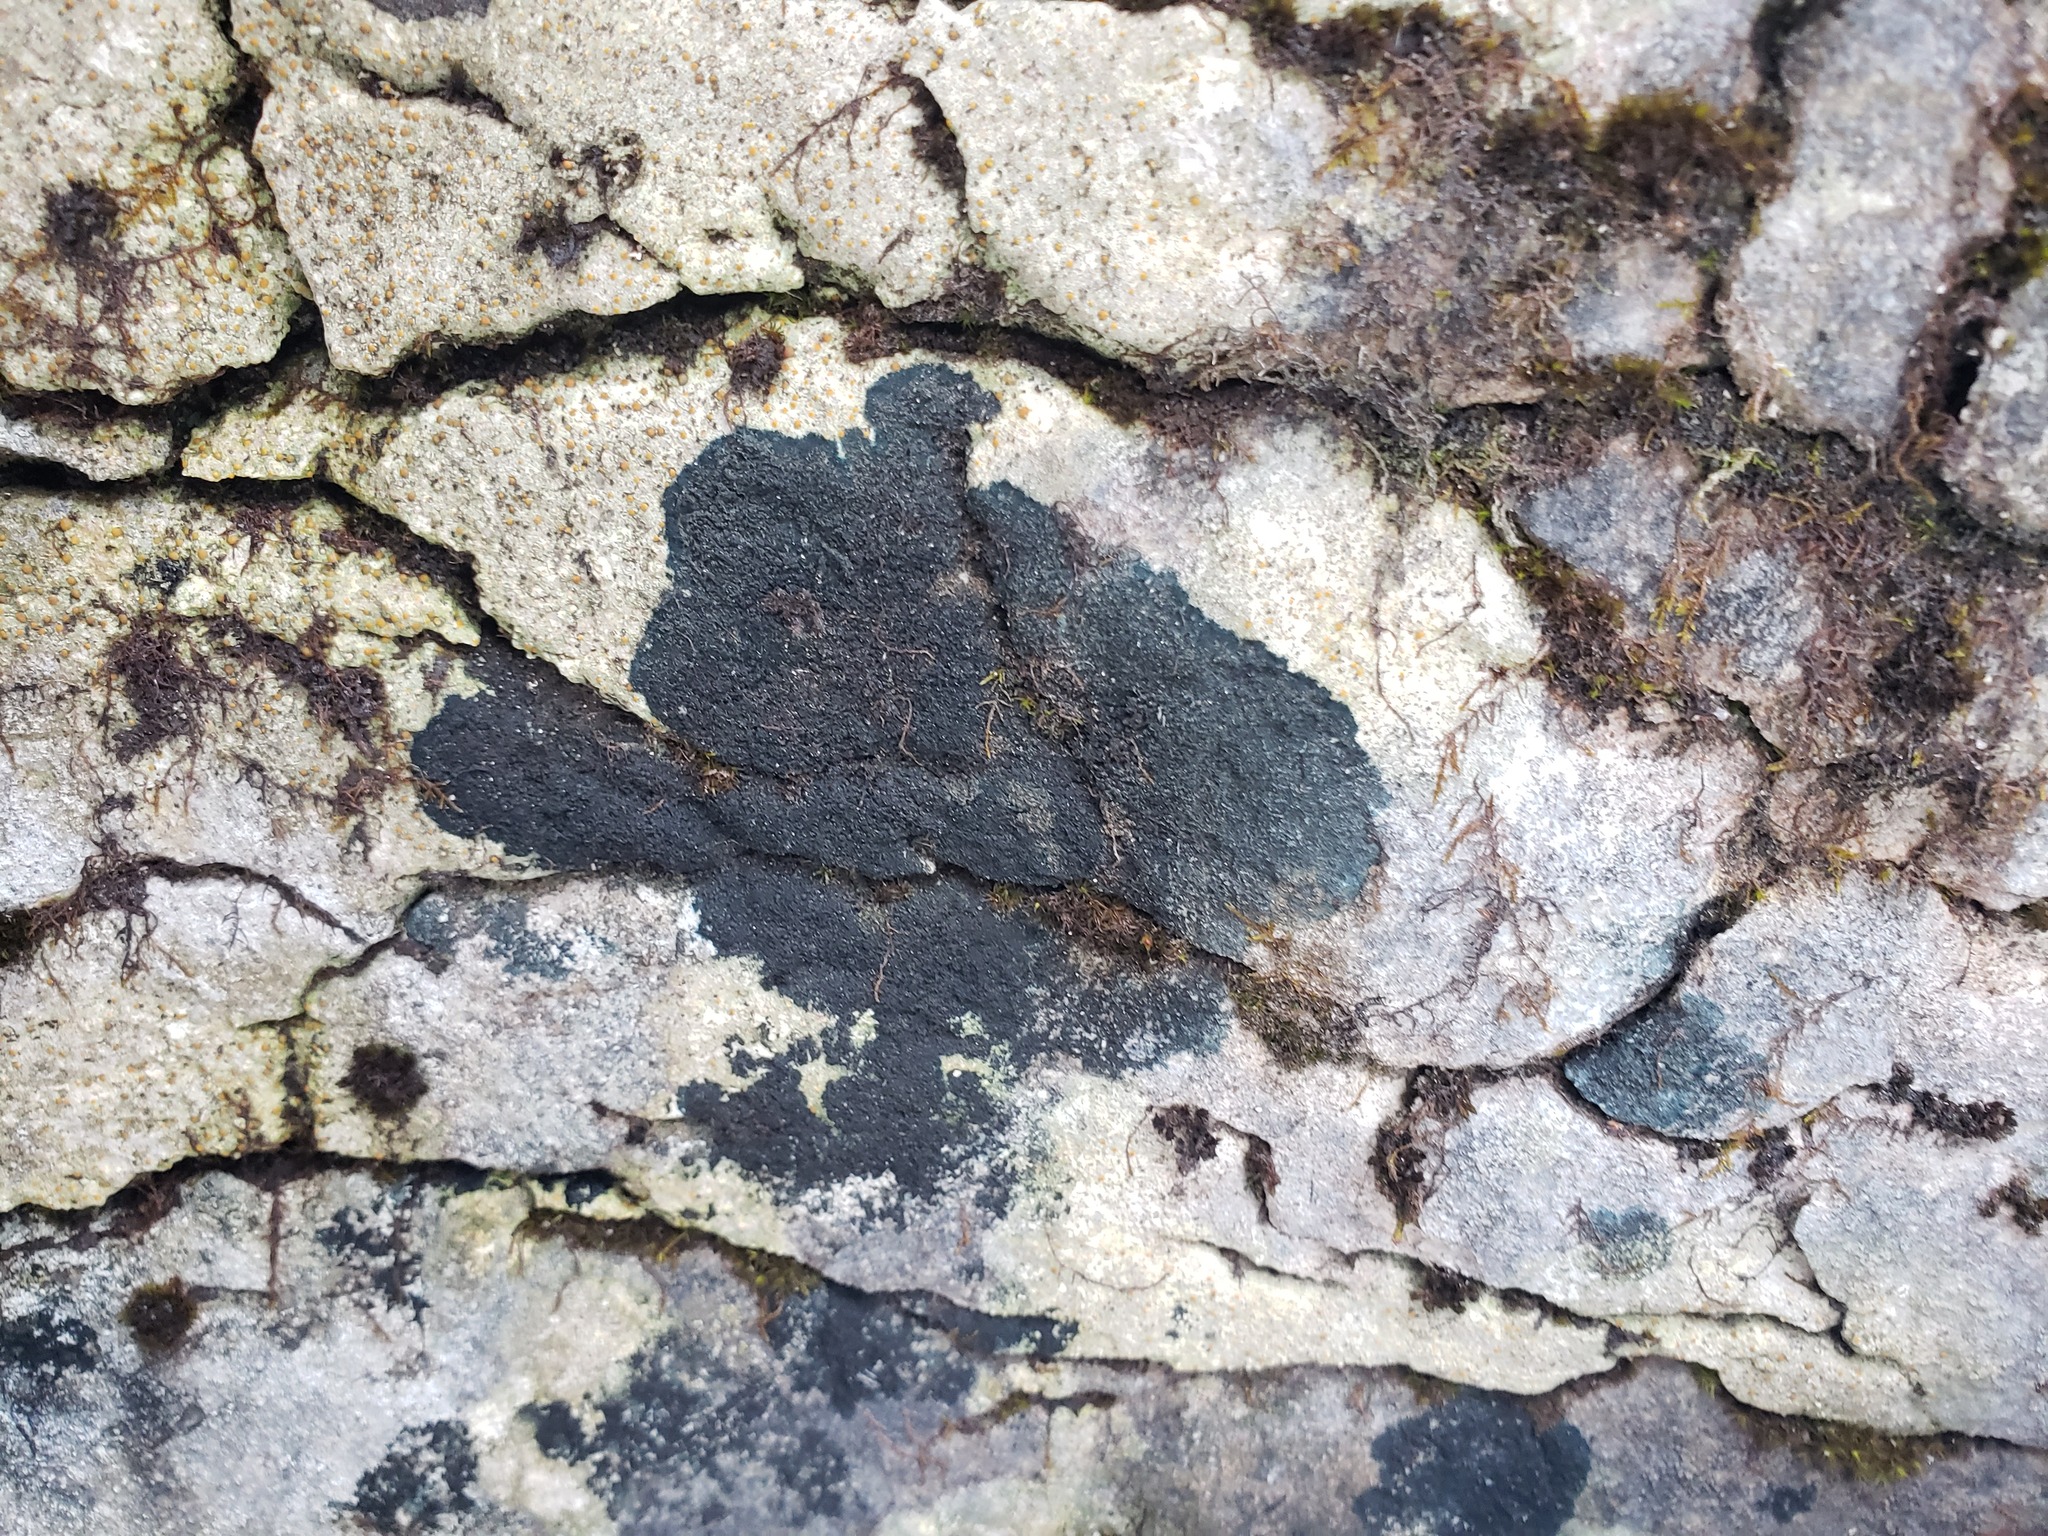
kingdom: Fungi
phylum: Ascomycota
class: Lecanoromycetes
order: Peltigerales
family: Placynthiaceae
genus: Placynthium
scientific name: Placynthium nigrum
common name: Blackthread lichen
